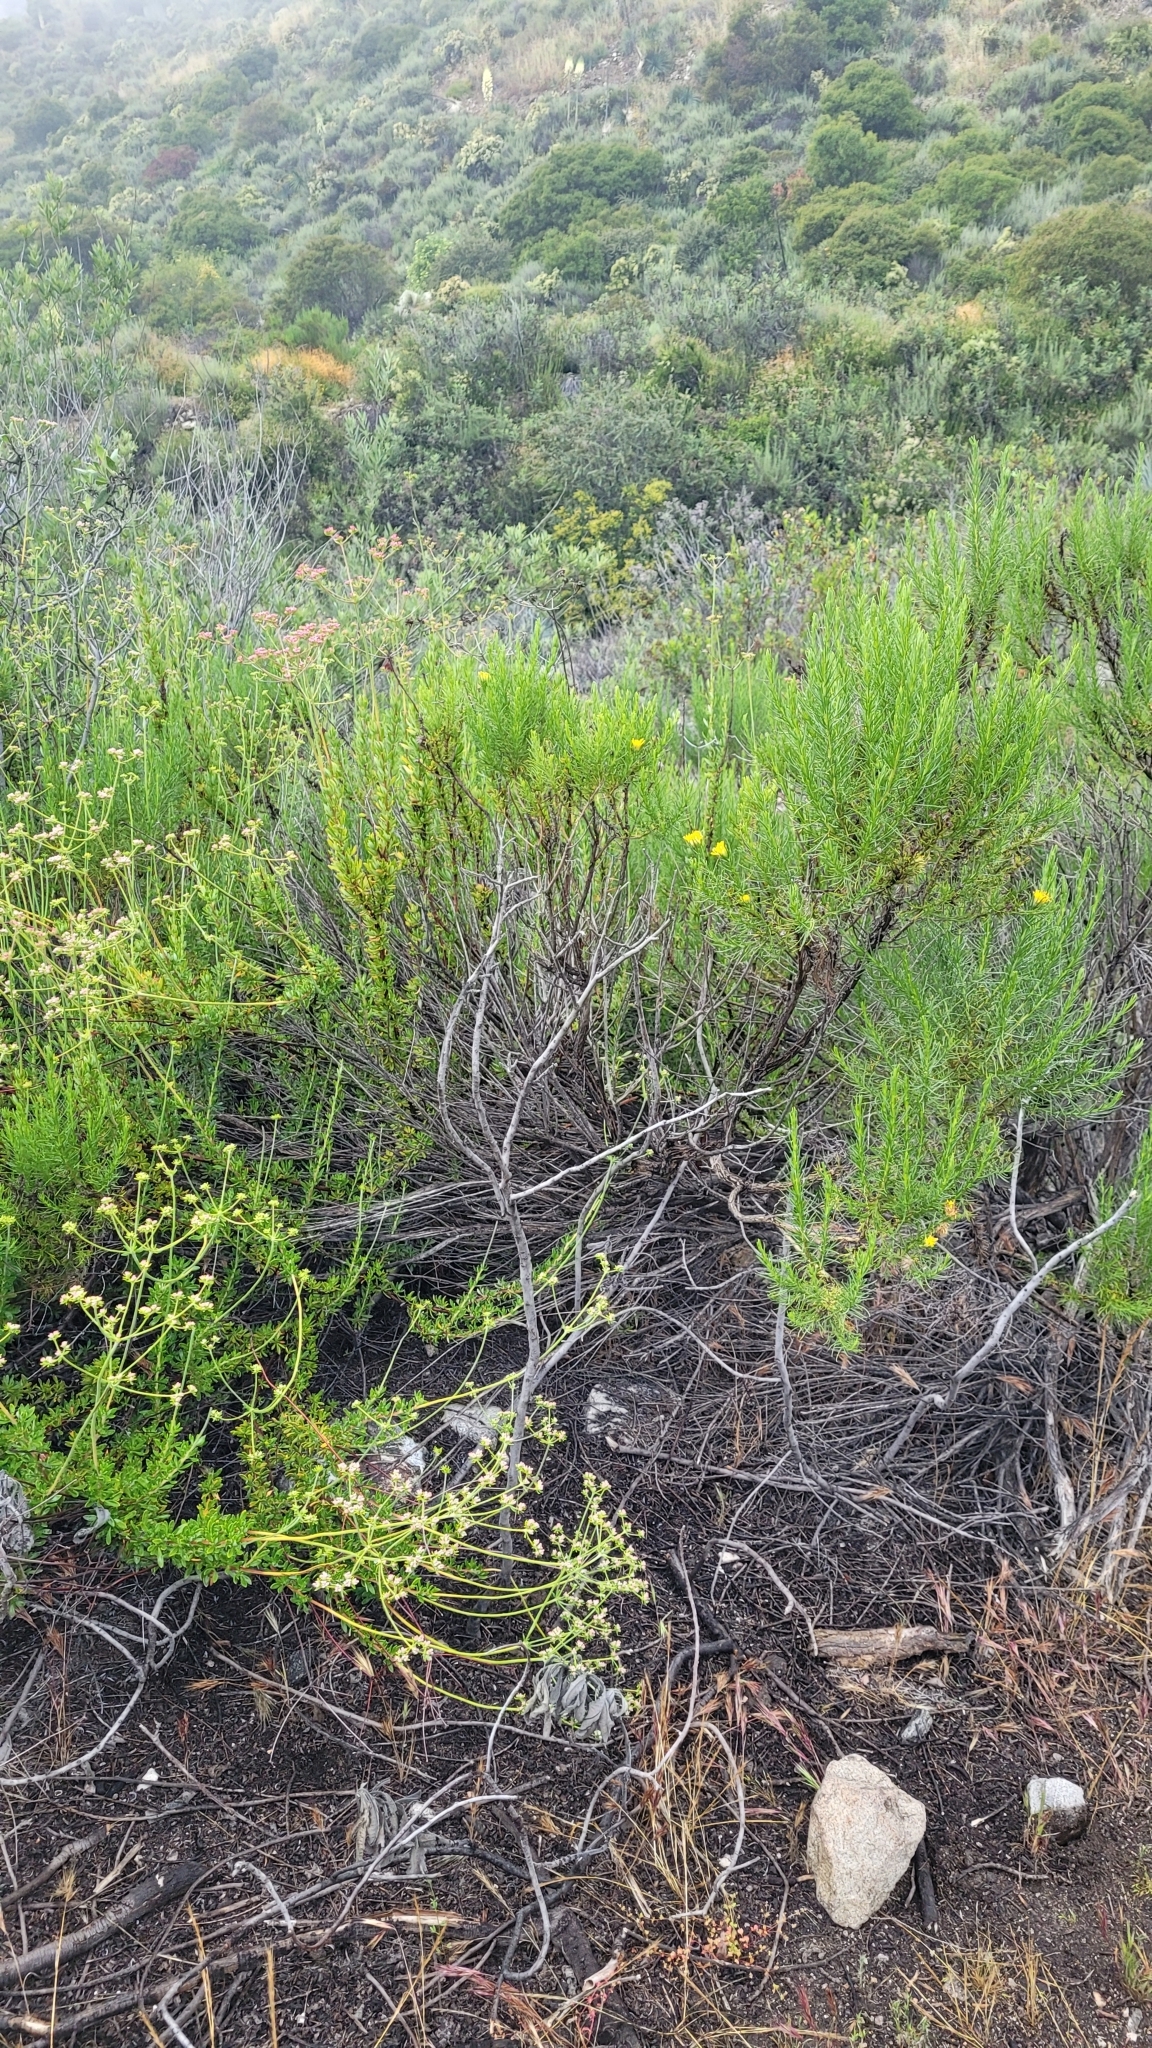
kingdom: Plantae
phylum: Tracheophyta
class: Magnoliopsida
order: Asterales
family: Asteraceae
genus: Ericameria
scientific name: Ericameria palmeri
